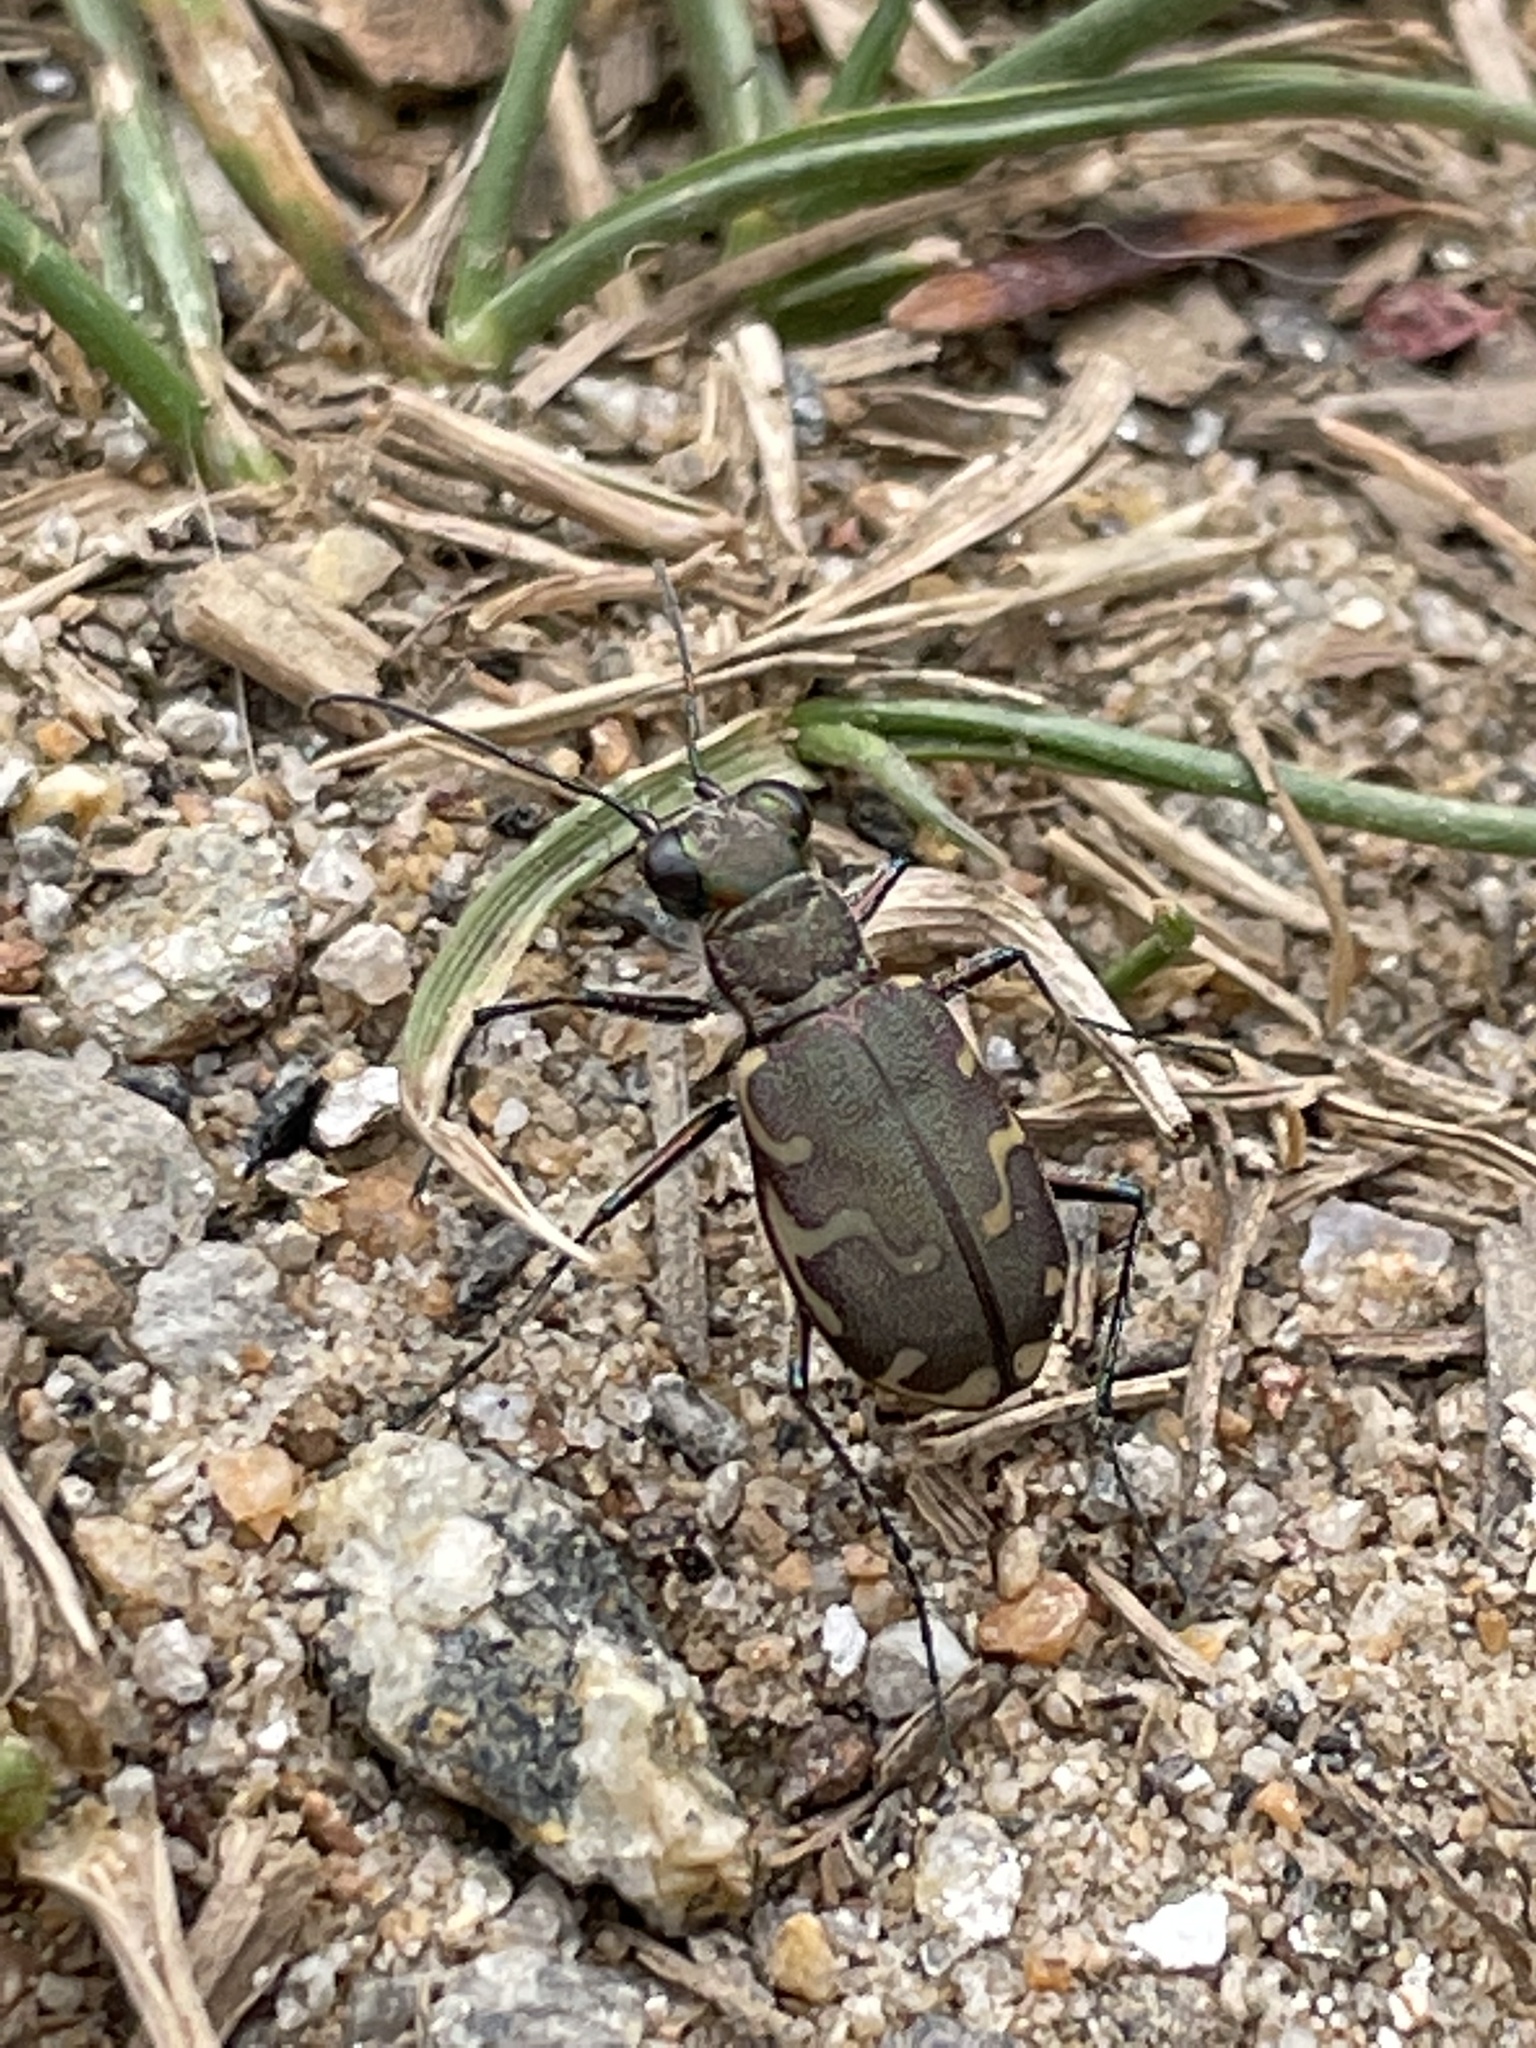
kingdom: Animalia
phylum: Arthropoda
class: Insecta
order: Coleoptera
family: Carabidae
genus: Cicindela
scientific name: Cicindela repanda
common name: Bronzed tiger beetle
